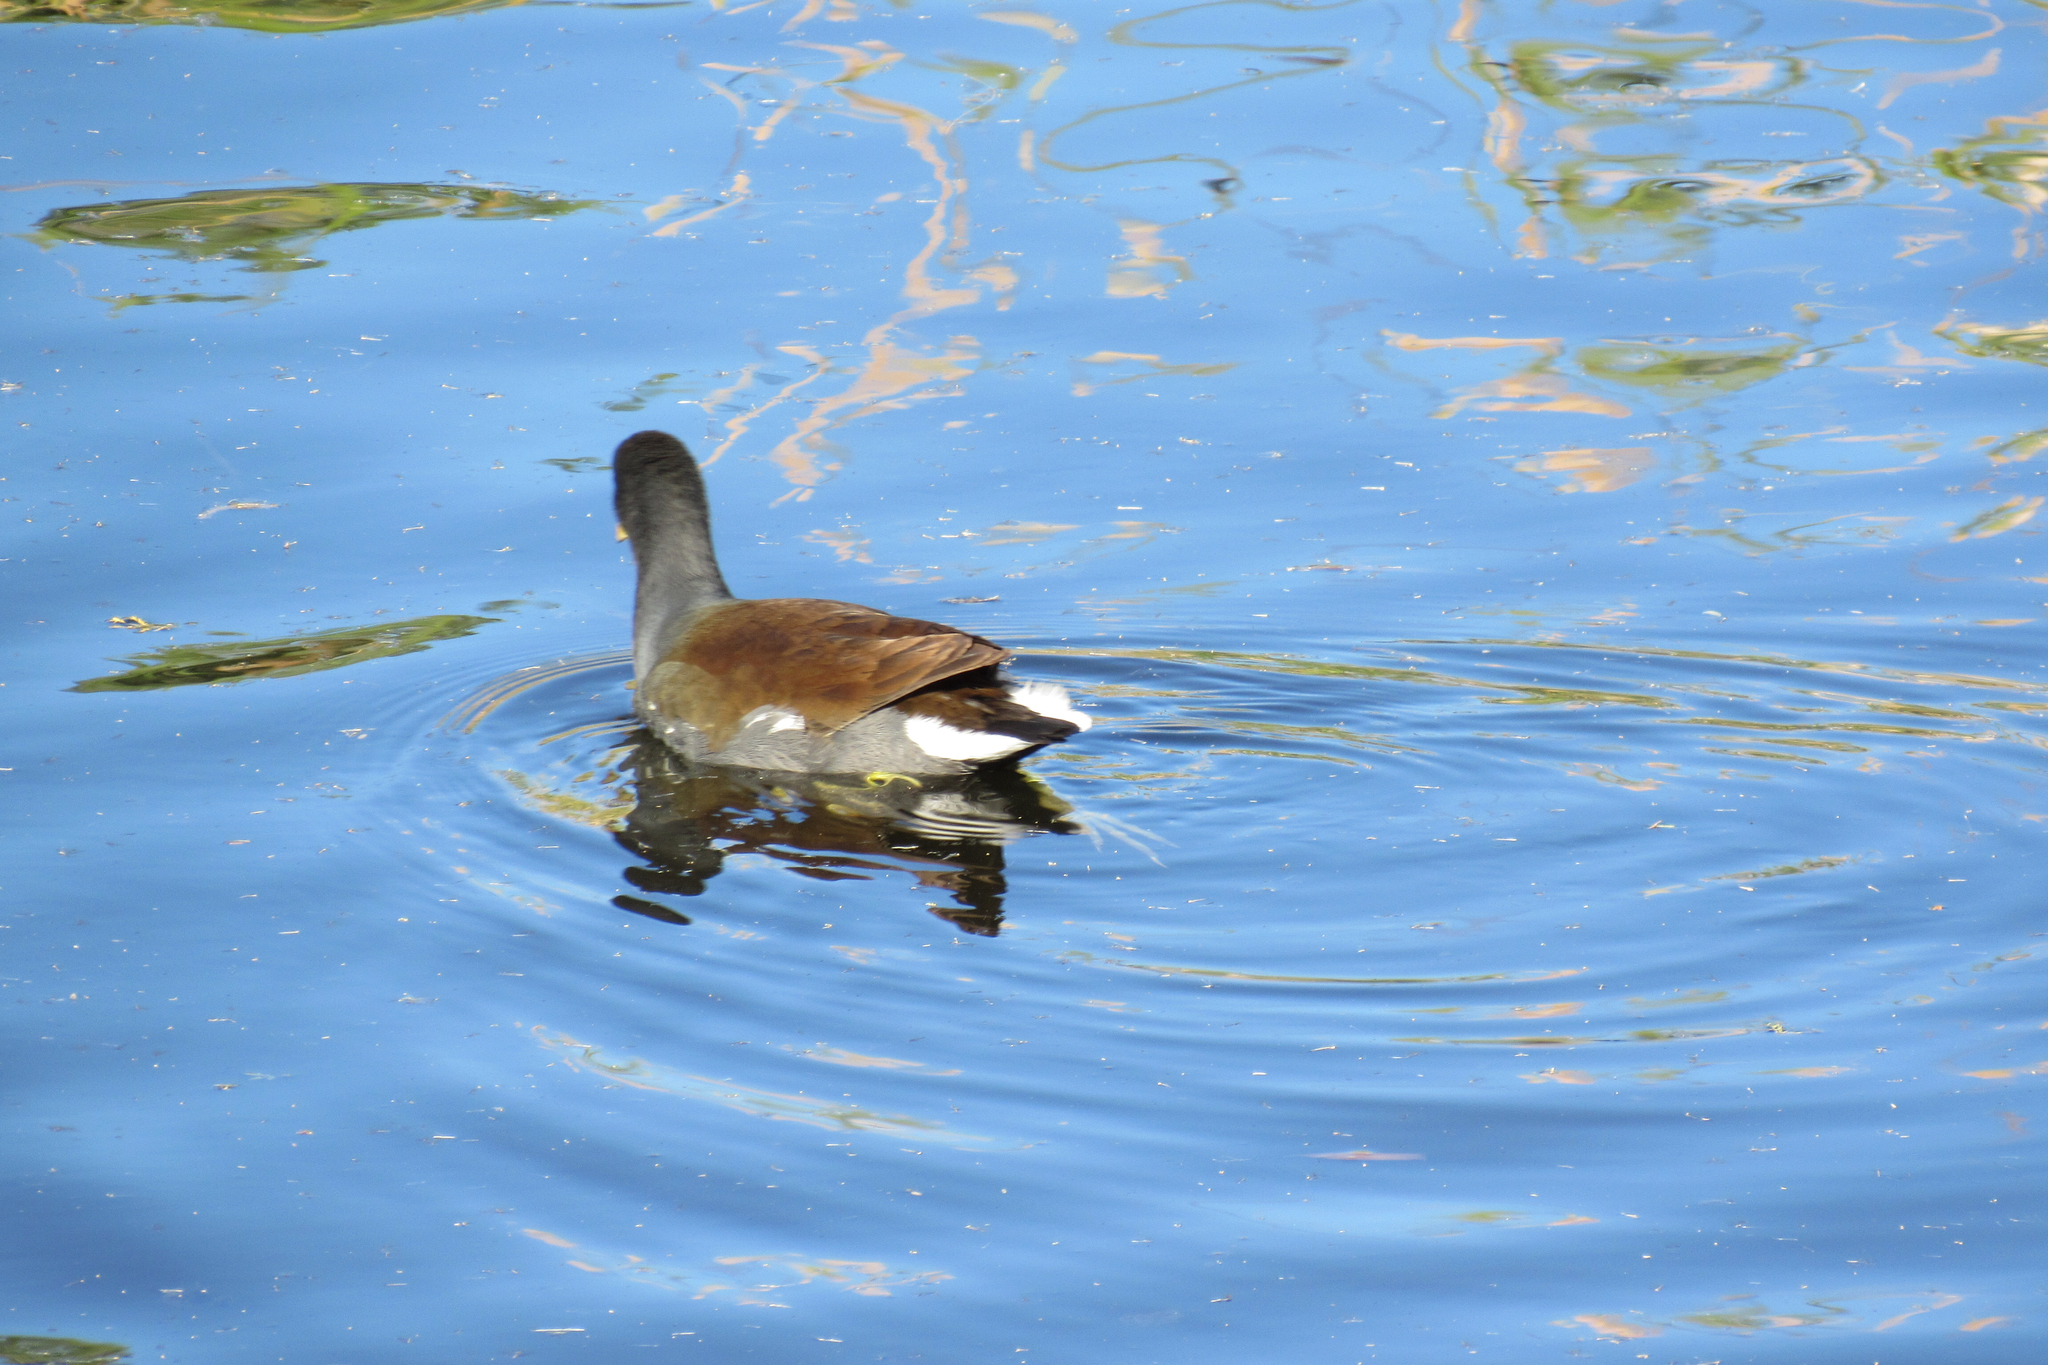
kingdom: Animalia
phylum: Chordata
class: Aves
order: Gruiformes
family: Rallidae
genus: Gallinula
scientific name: Gallinula chloropus
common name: Common moorhen
